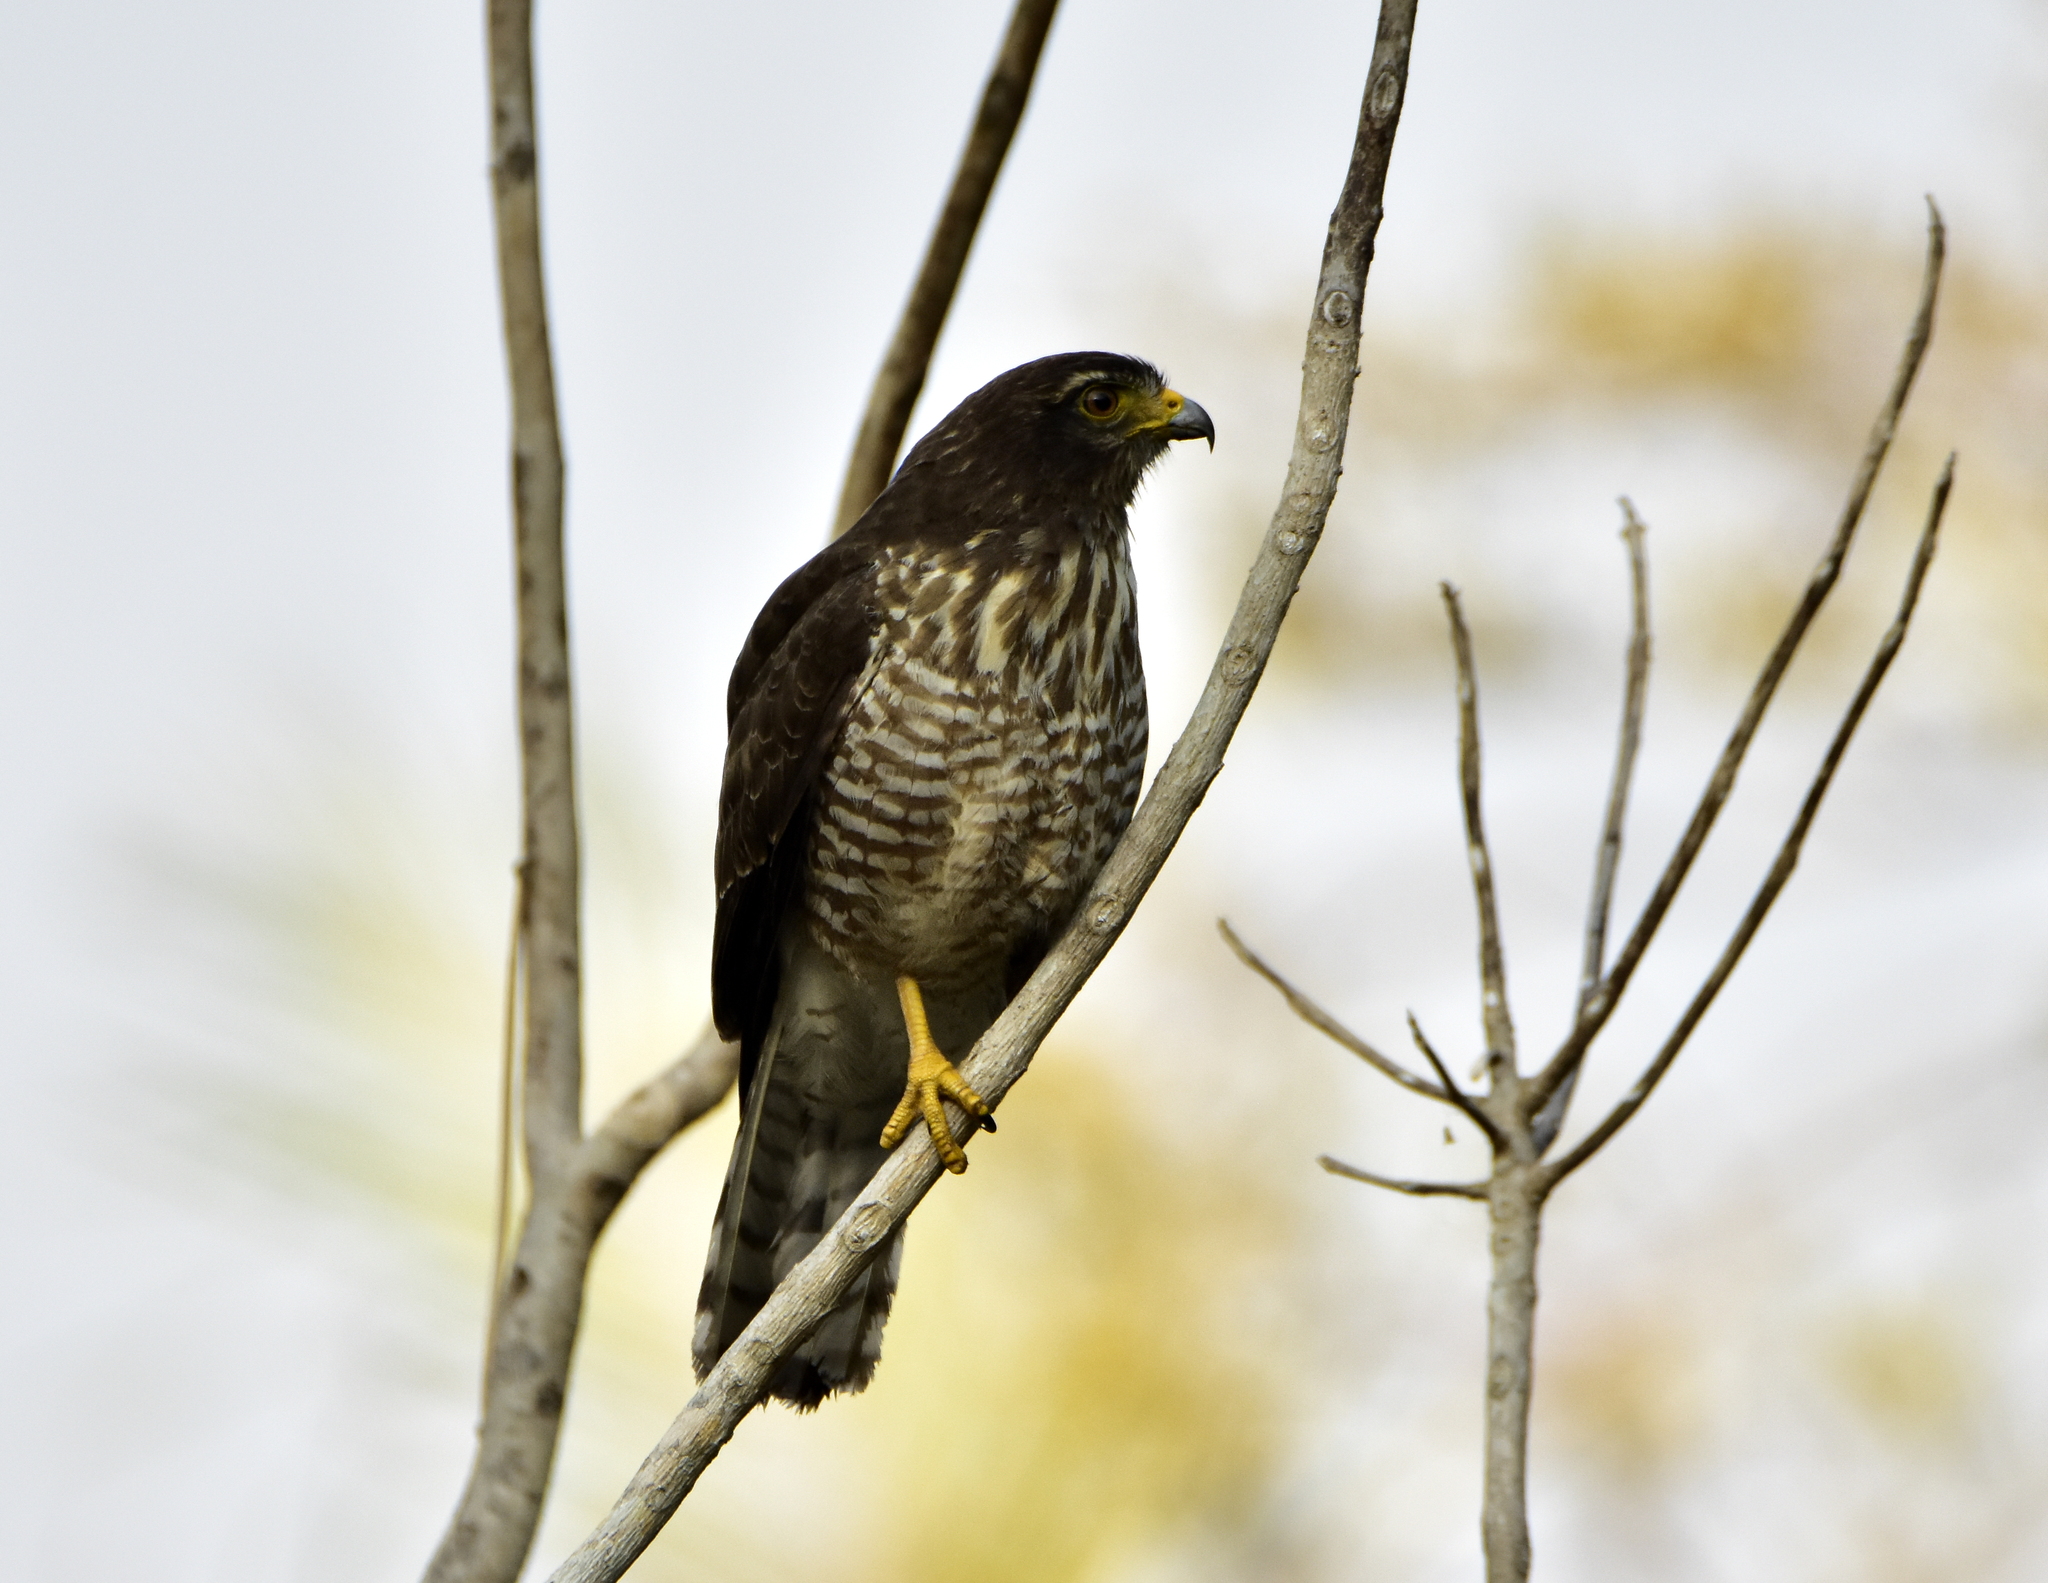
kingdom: Animalia
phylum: Chordata
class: Aves
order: Accipitriformes
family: Accipitridae
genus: Rupornis
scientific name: Rupornis magnirostris
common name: Roadside hawk
